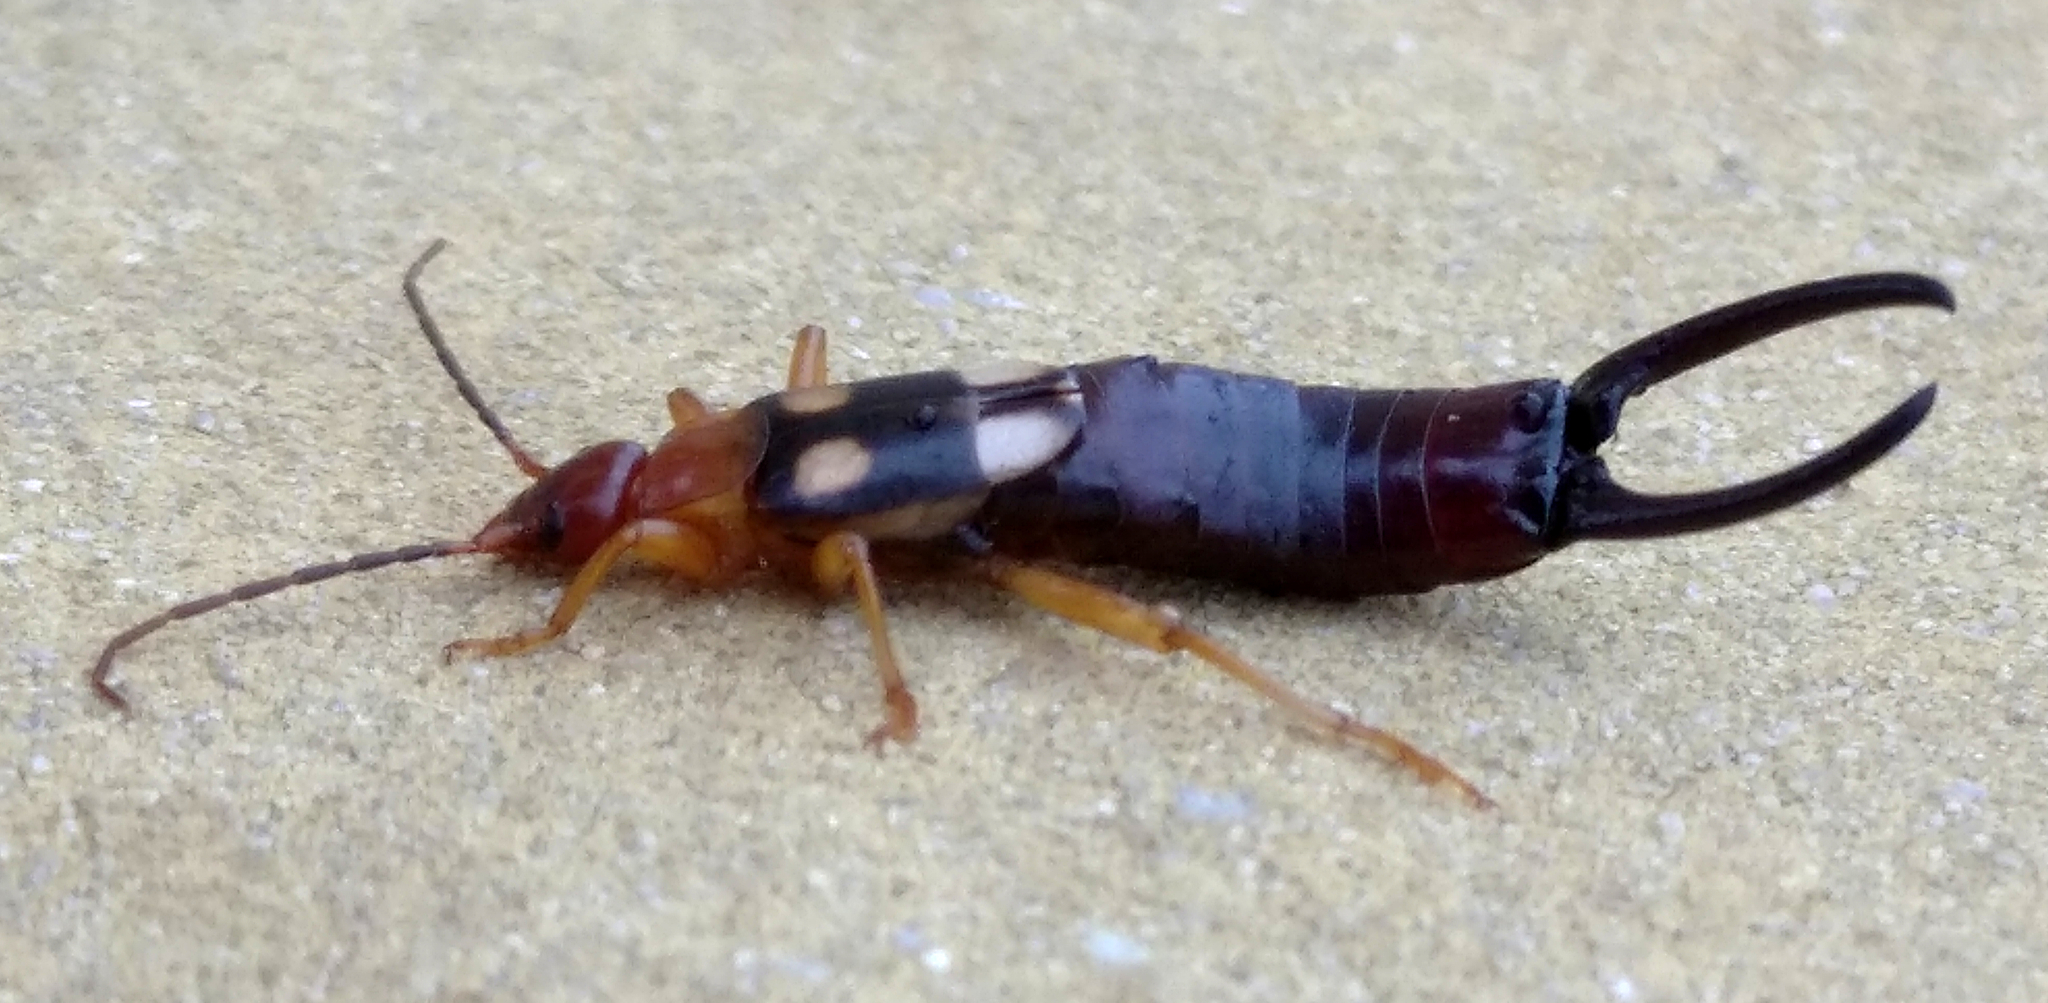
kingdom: Animalia
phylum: Arthropoda
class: Insecta
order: Dermaptera
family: Forficulidae
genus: Forficula
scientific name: Forficula smyrnensis
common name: Smyrna earwig
